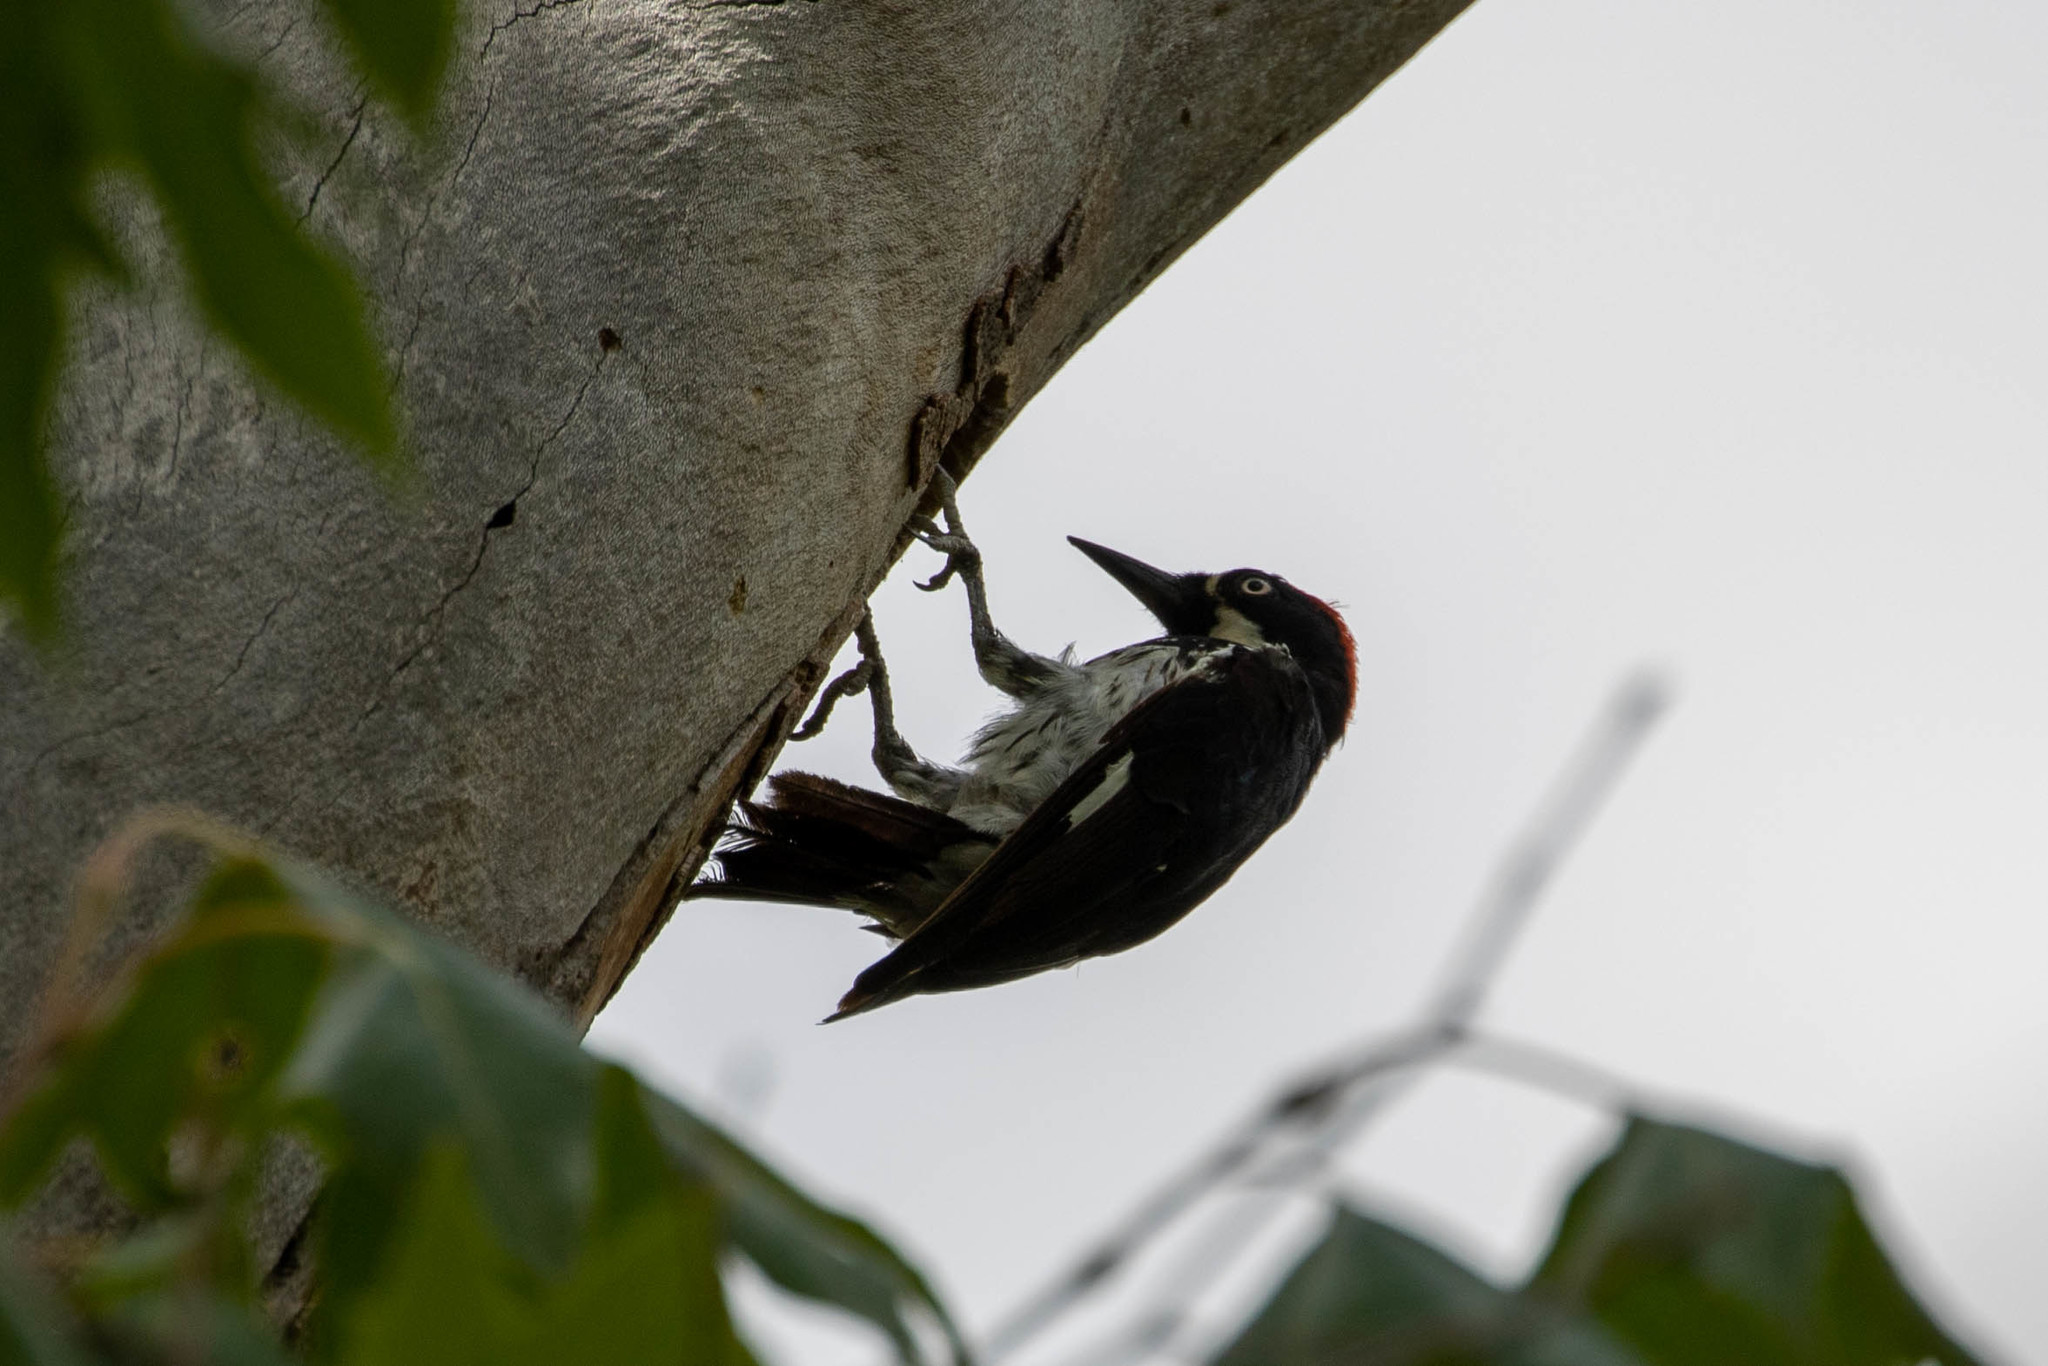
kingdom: Animalia
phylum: Chordata
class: Aves
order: Piciformes
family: Picidae
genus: Melanerpes
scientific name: Melanerpes formicivorus
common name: Acorn woodpecker
